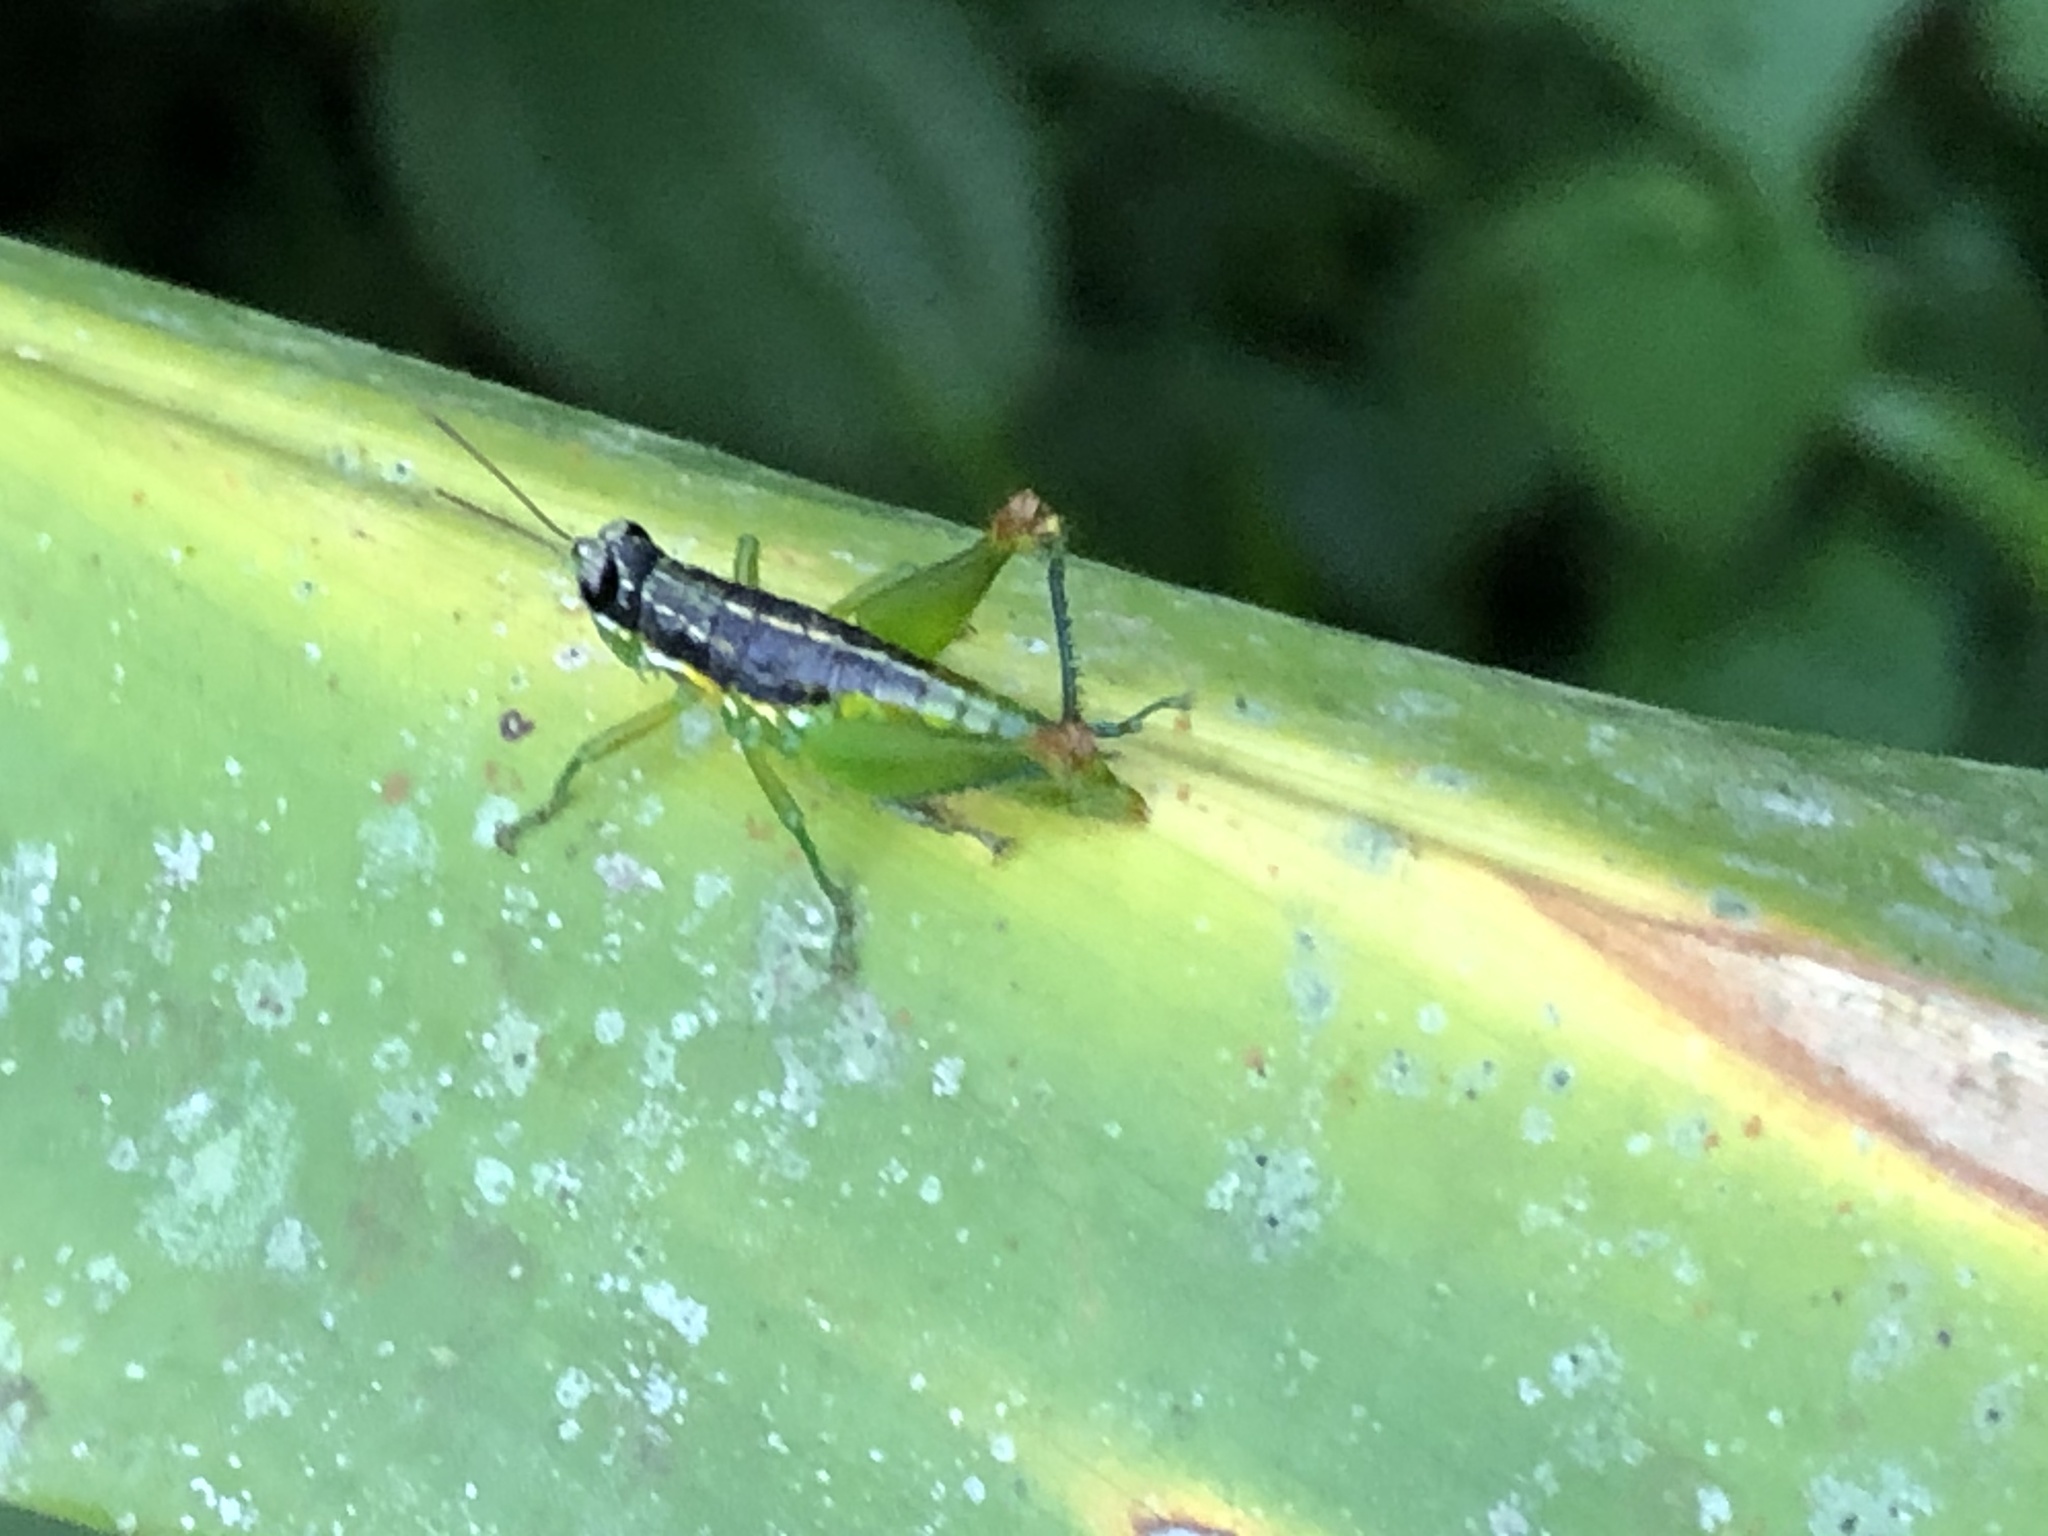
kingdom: Animalia
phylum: Arthropoda
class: Insecta
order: Orthoptera
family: Acrididae
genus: Liebermannacris
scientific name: Liebermannacris dorsualis
